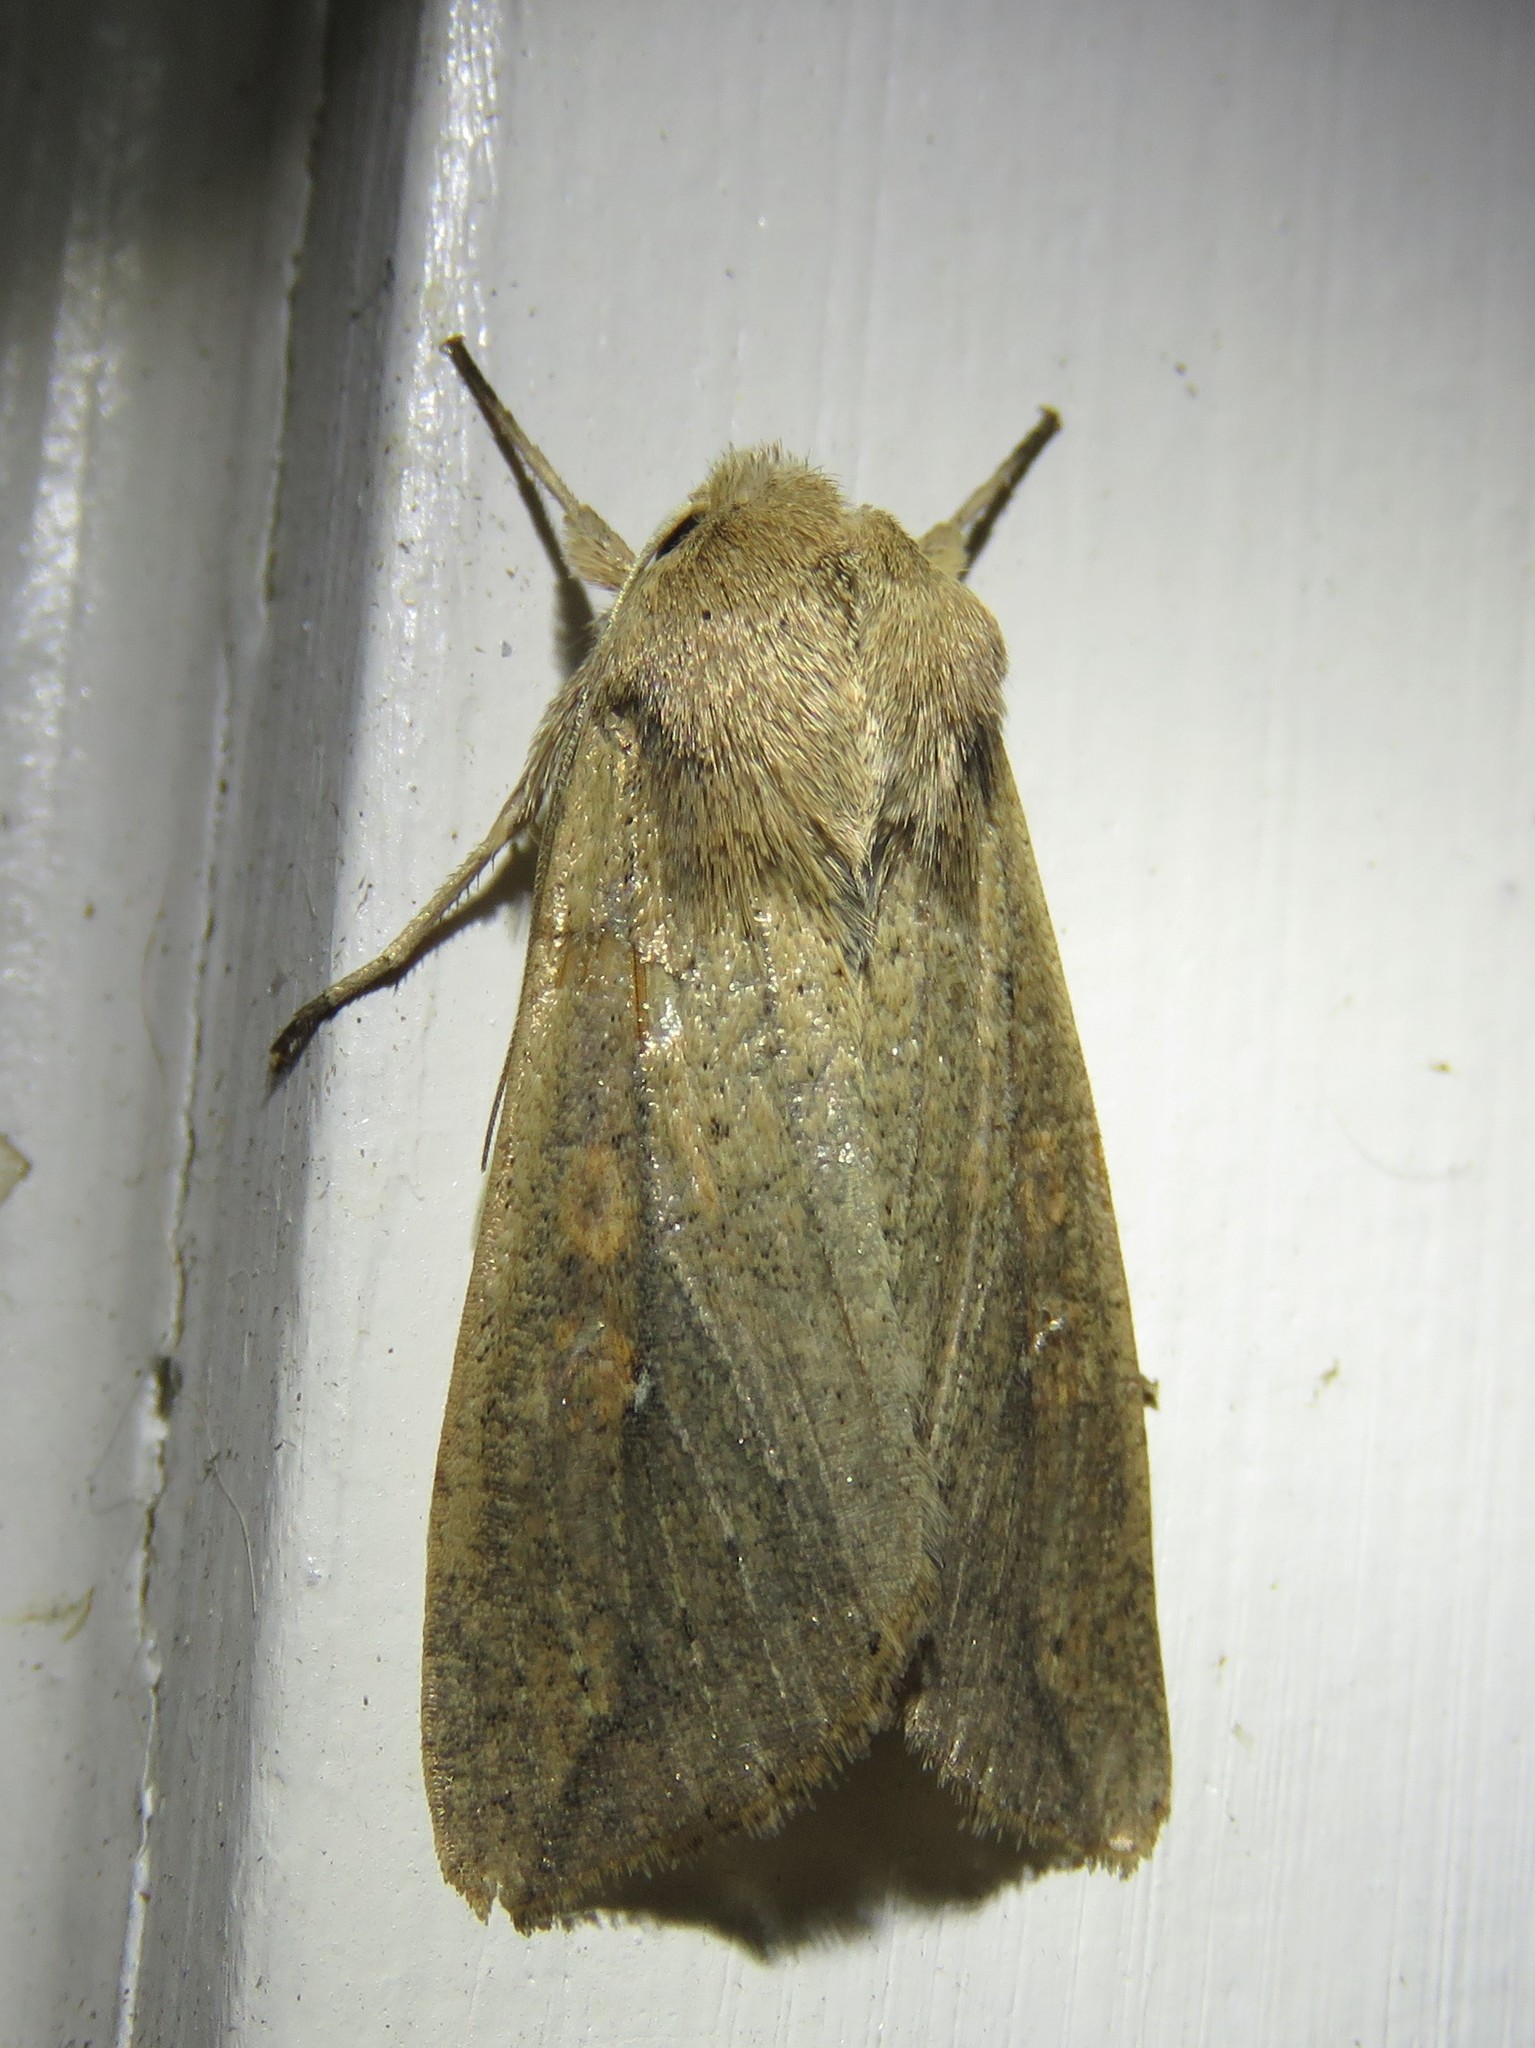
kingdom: Animalia
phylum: Arthropoda
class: Insecta
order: Lepidoptera
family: Noctuidae
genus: Mythimna
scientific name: Mythimna unipuncta
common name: White-speck
